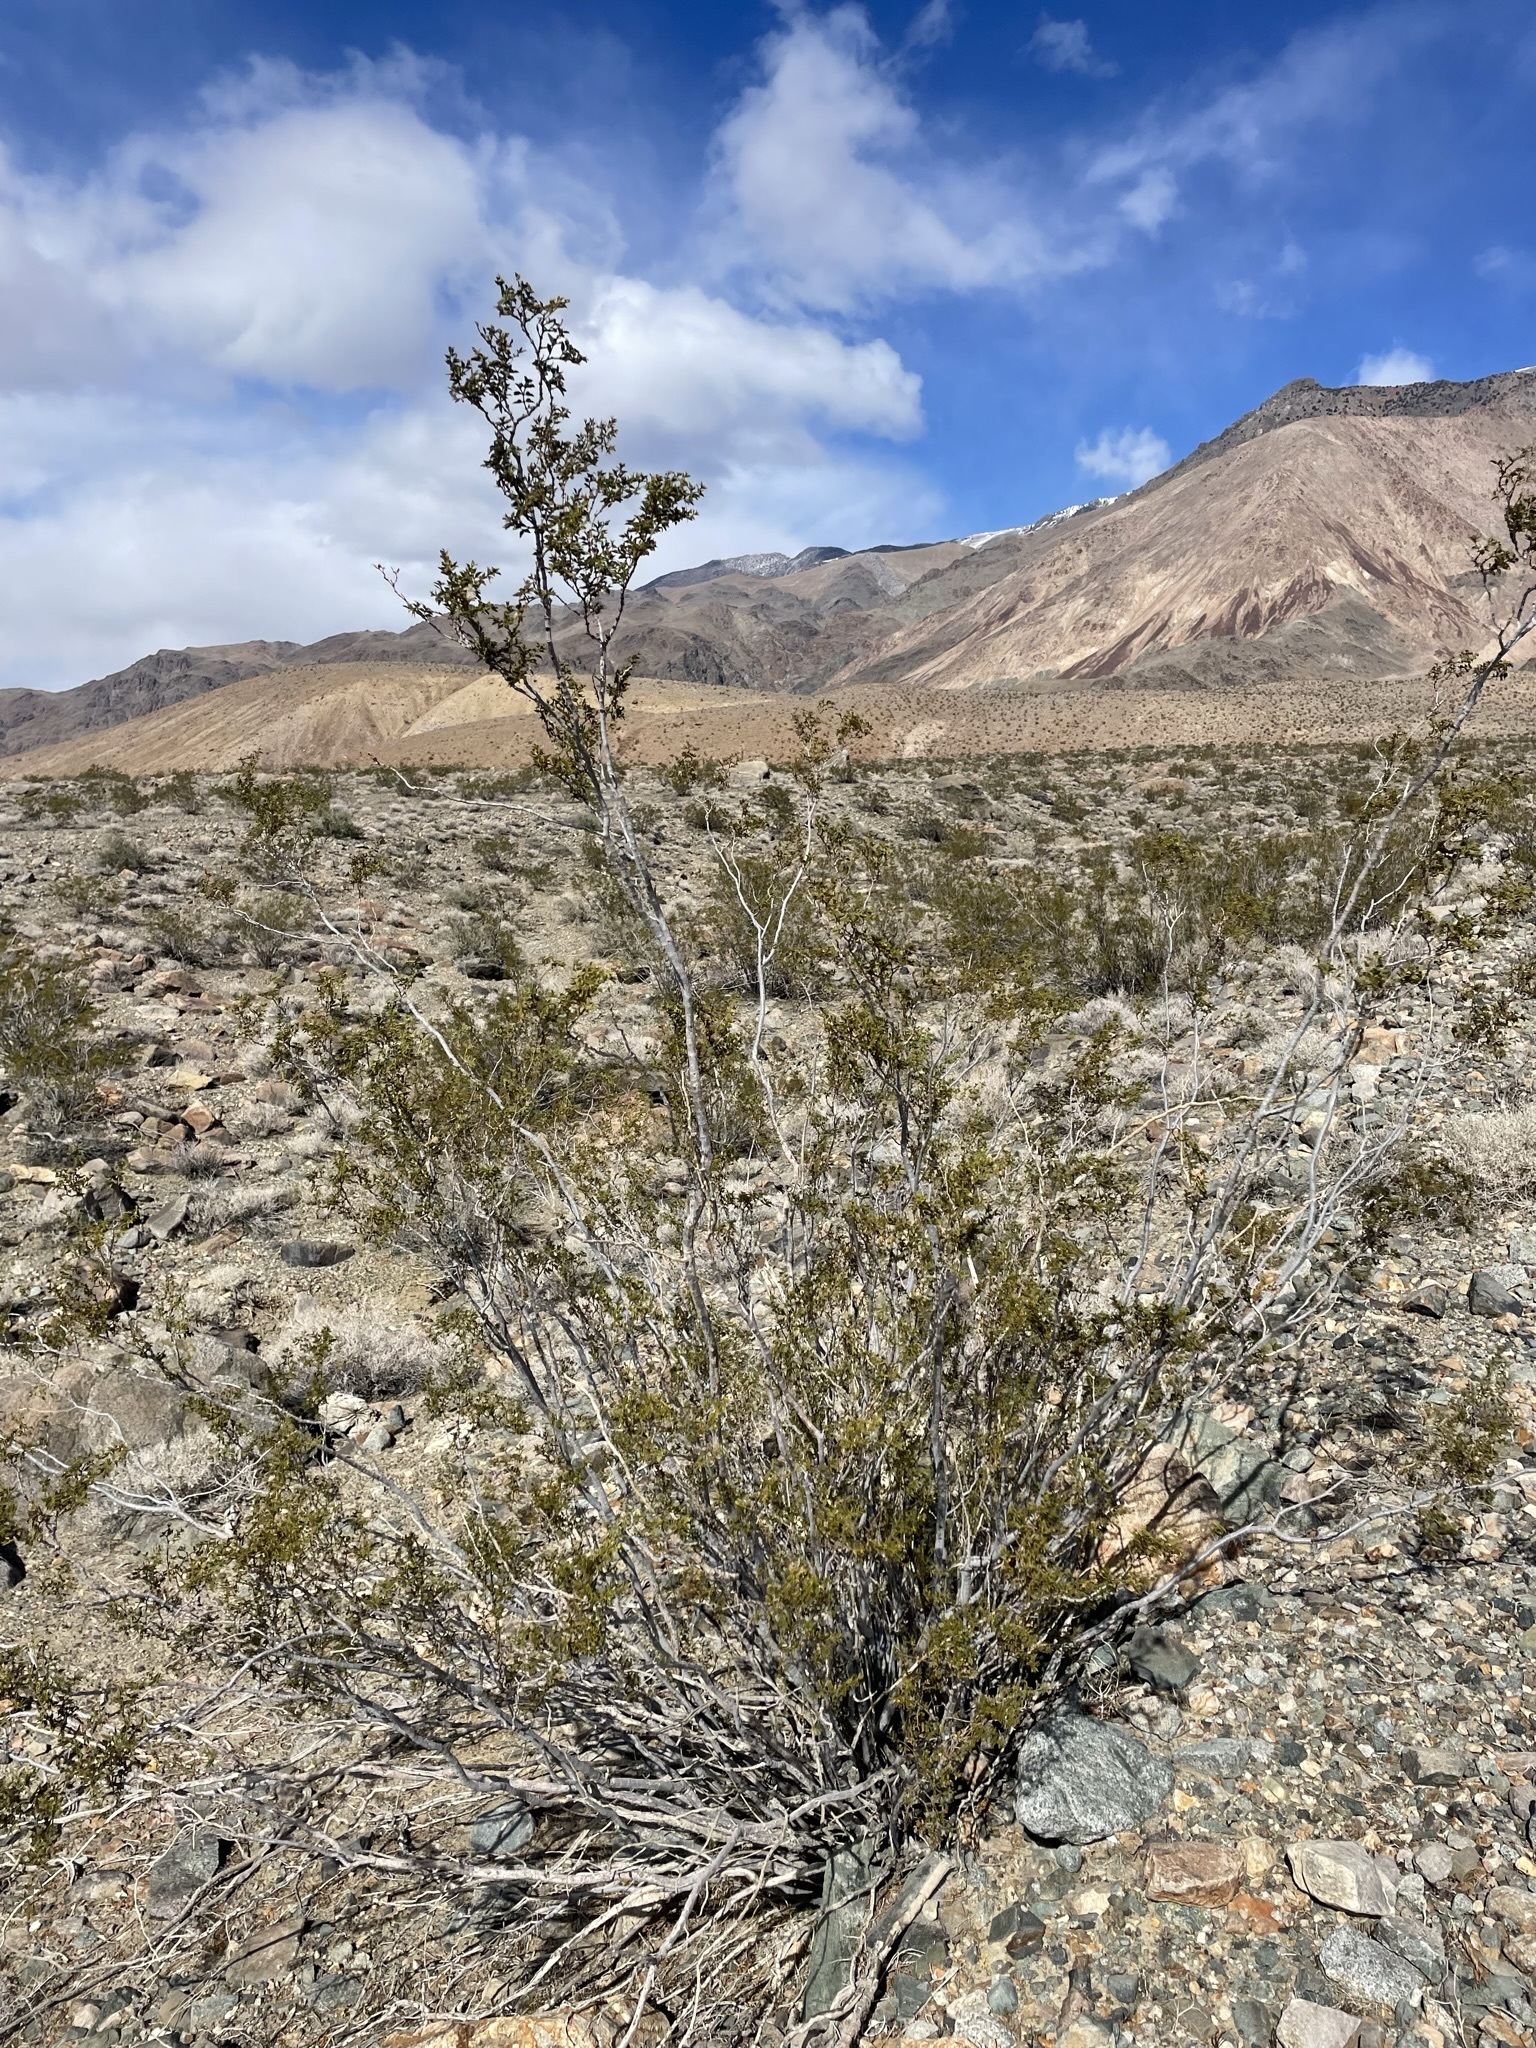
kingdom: Plantae
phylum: Tracheophyta
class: Magnoliopsida
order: Zygophyllales
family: Zygophyllaceae
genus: Larrea
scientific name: Larrea tridentata
